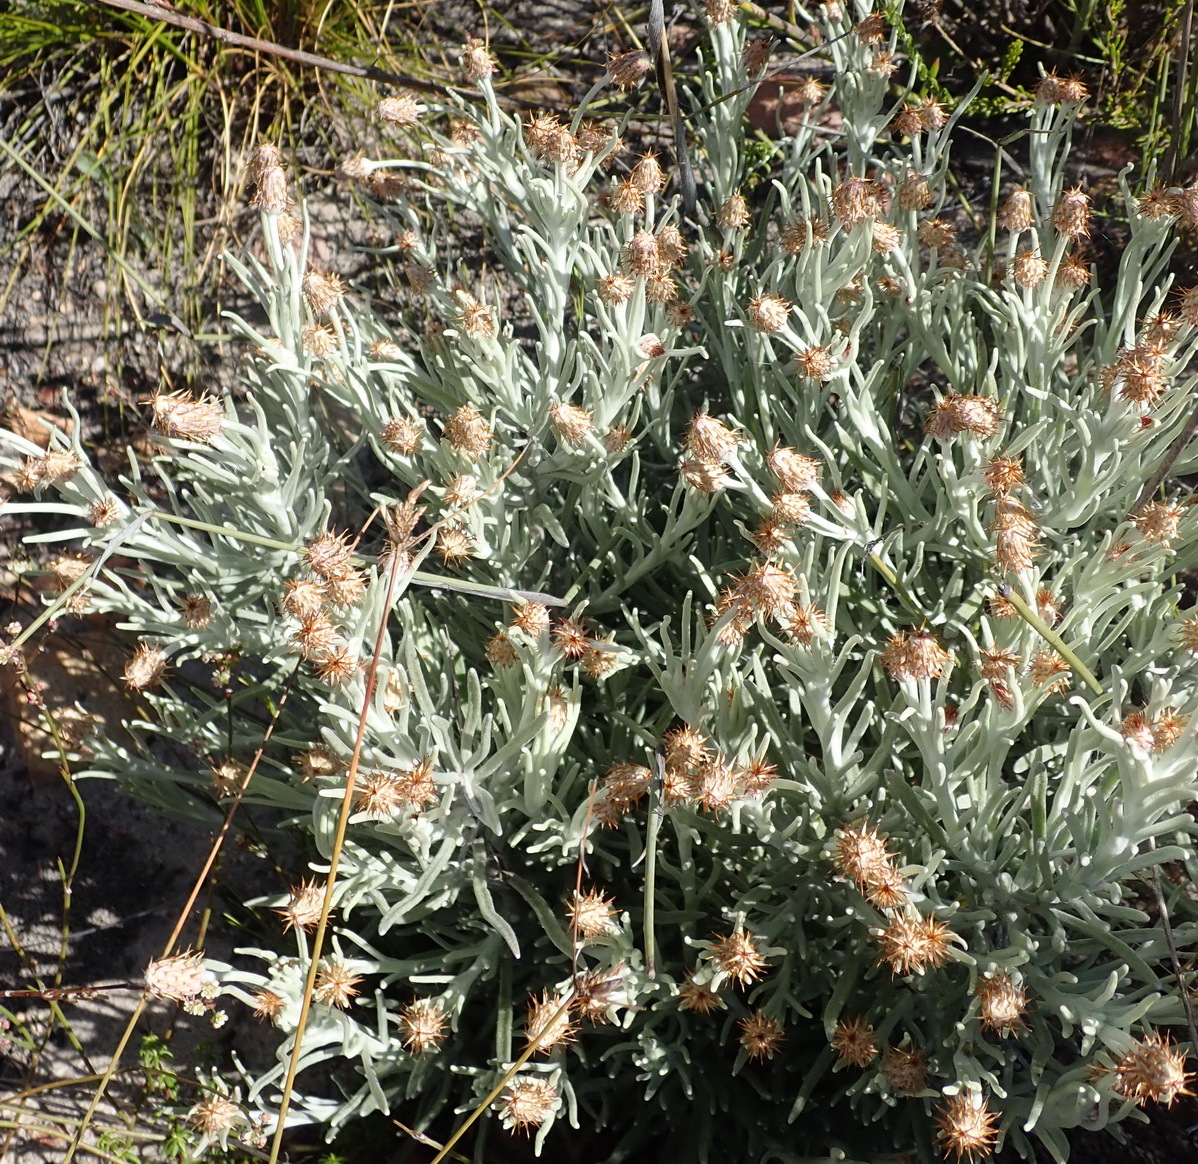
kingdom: Plantae
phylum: Tracheophyta
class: Magnoliopsida
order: Asterales
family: Asteraceae
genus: Syncarpha
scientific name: Syncarpha gnaphaloides
